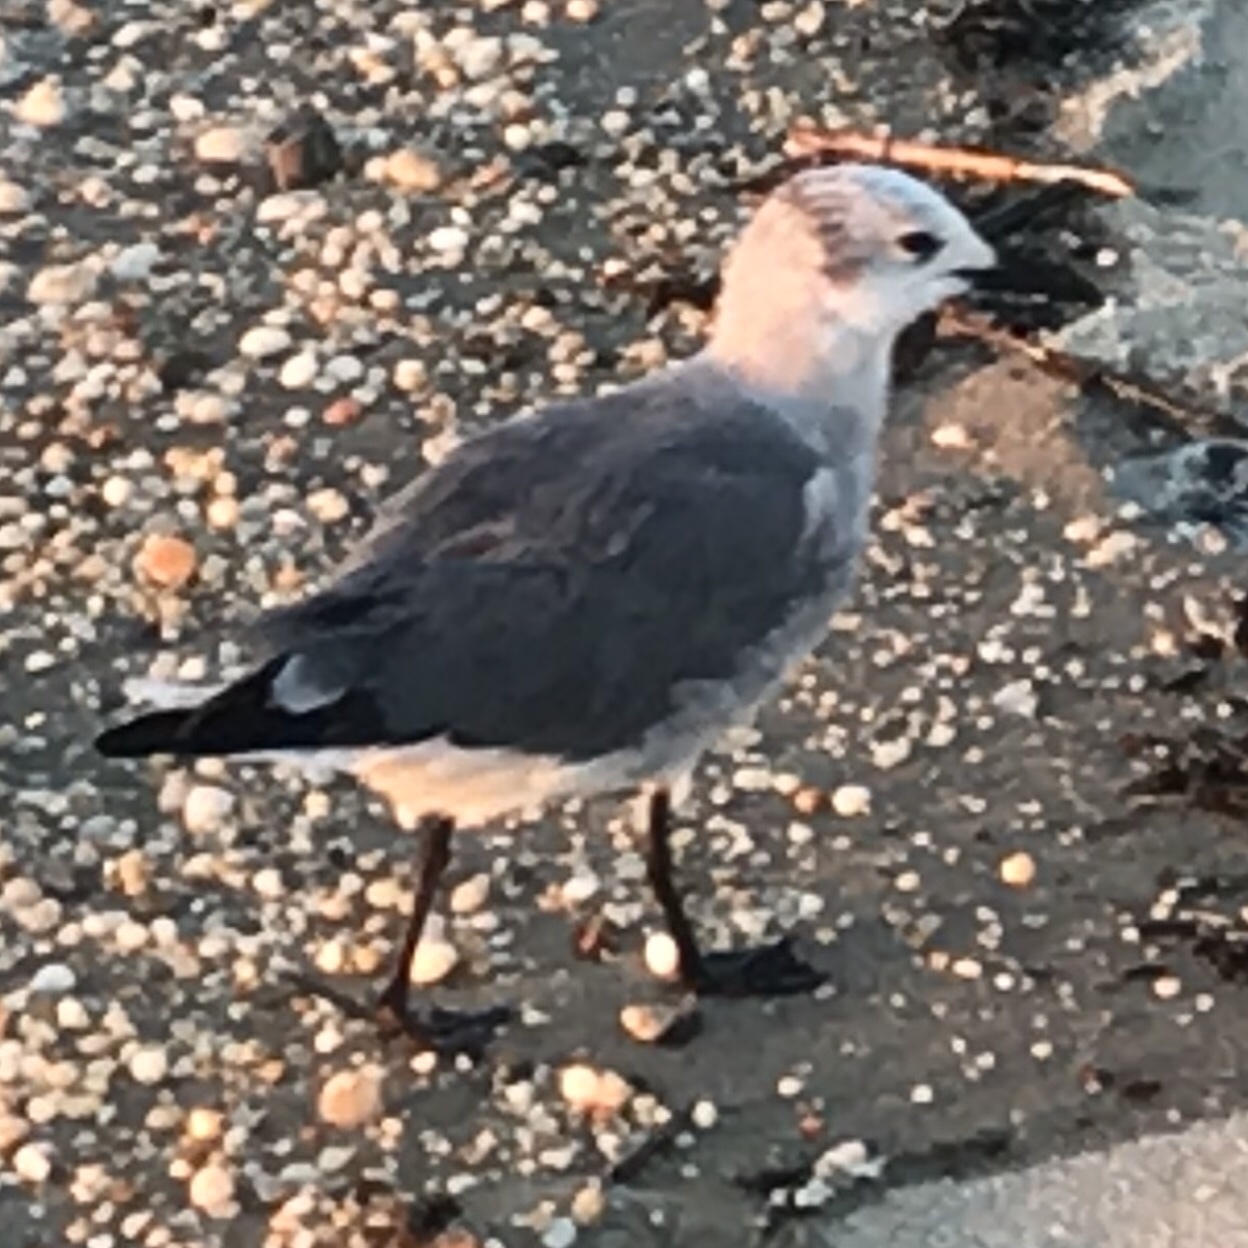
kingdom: Animalia
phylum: Chordata
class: Aves
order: Charadriiformes
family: Laridae
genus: Leucophaeus
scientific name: Leucophaeus atricilla
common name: Laughing gull
